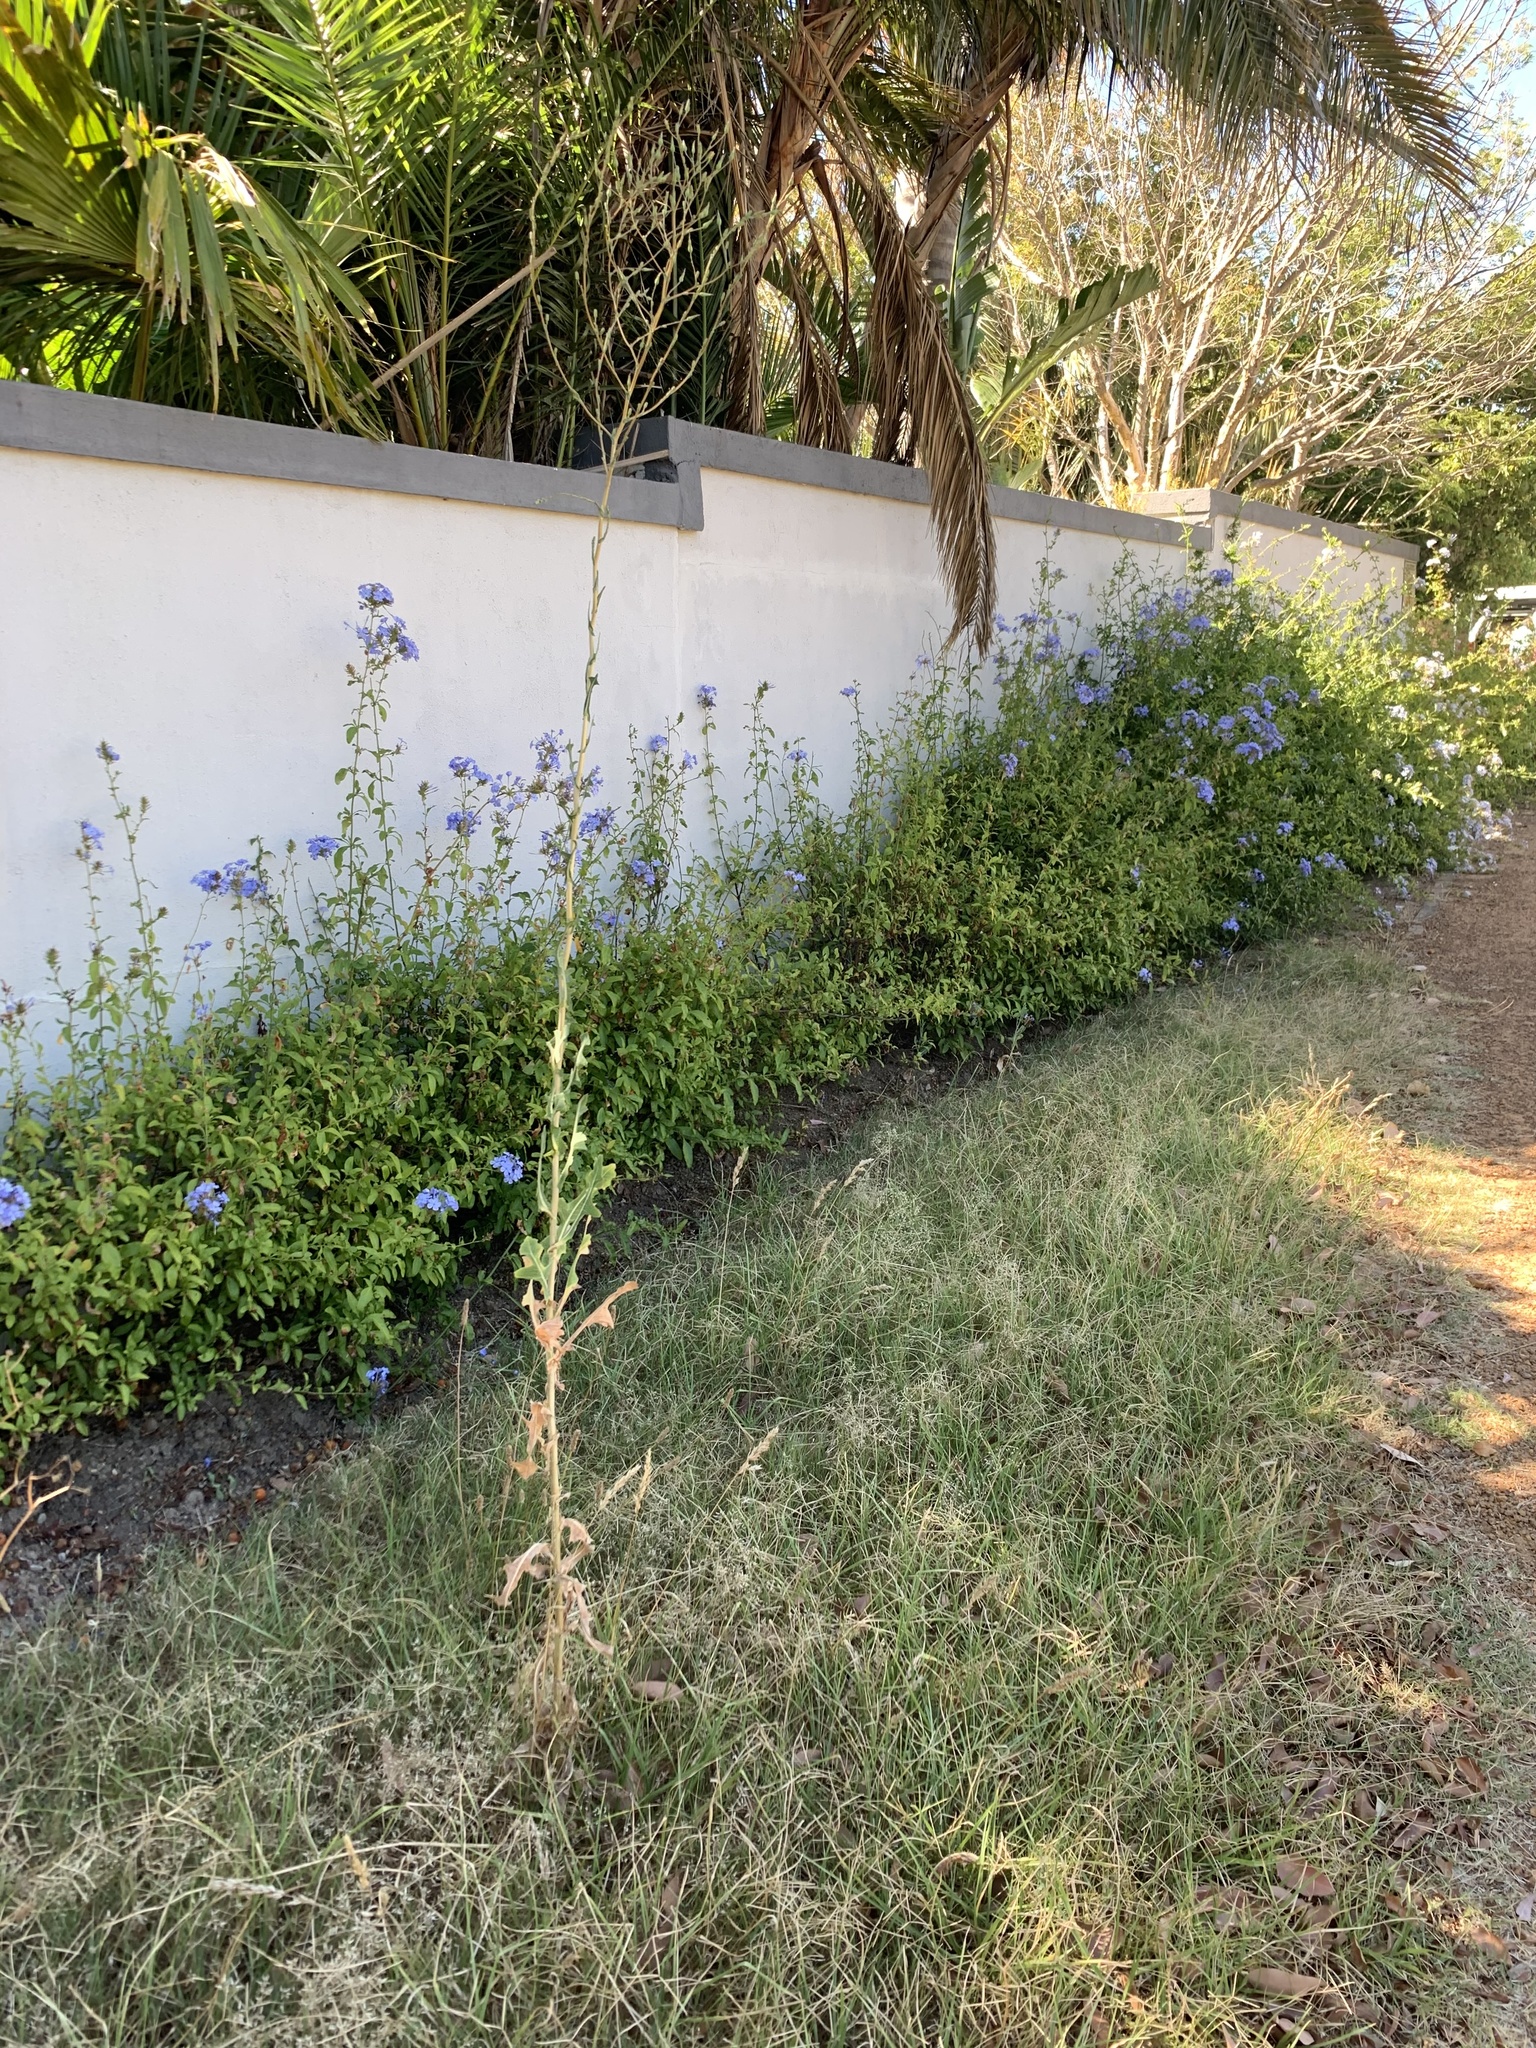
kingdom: Plantae
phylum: Tracheophyta
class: Magnoliopsida
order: Asterales
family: Asteraceae
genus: Lactuca
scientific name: Lactuca serriola
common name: Prickly lettuce
